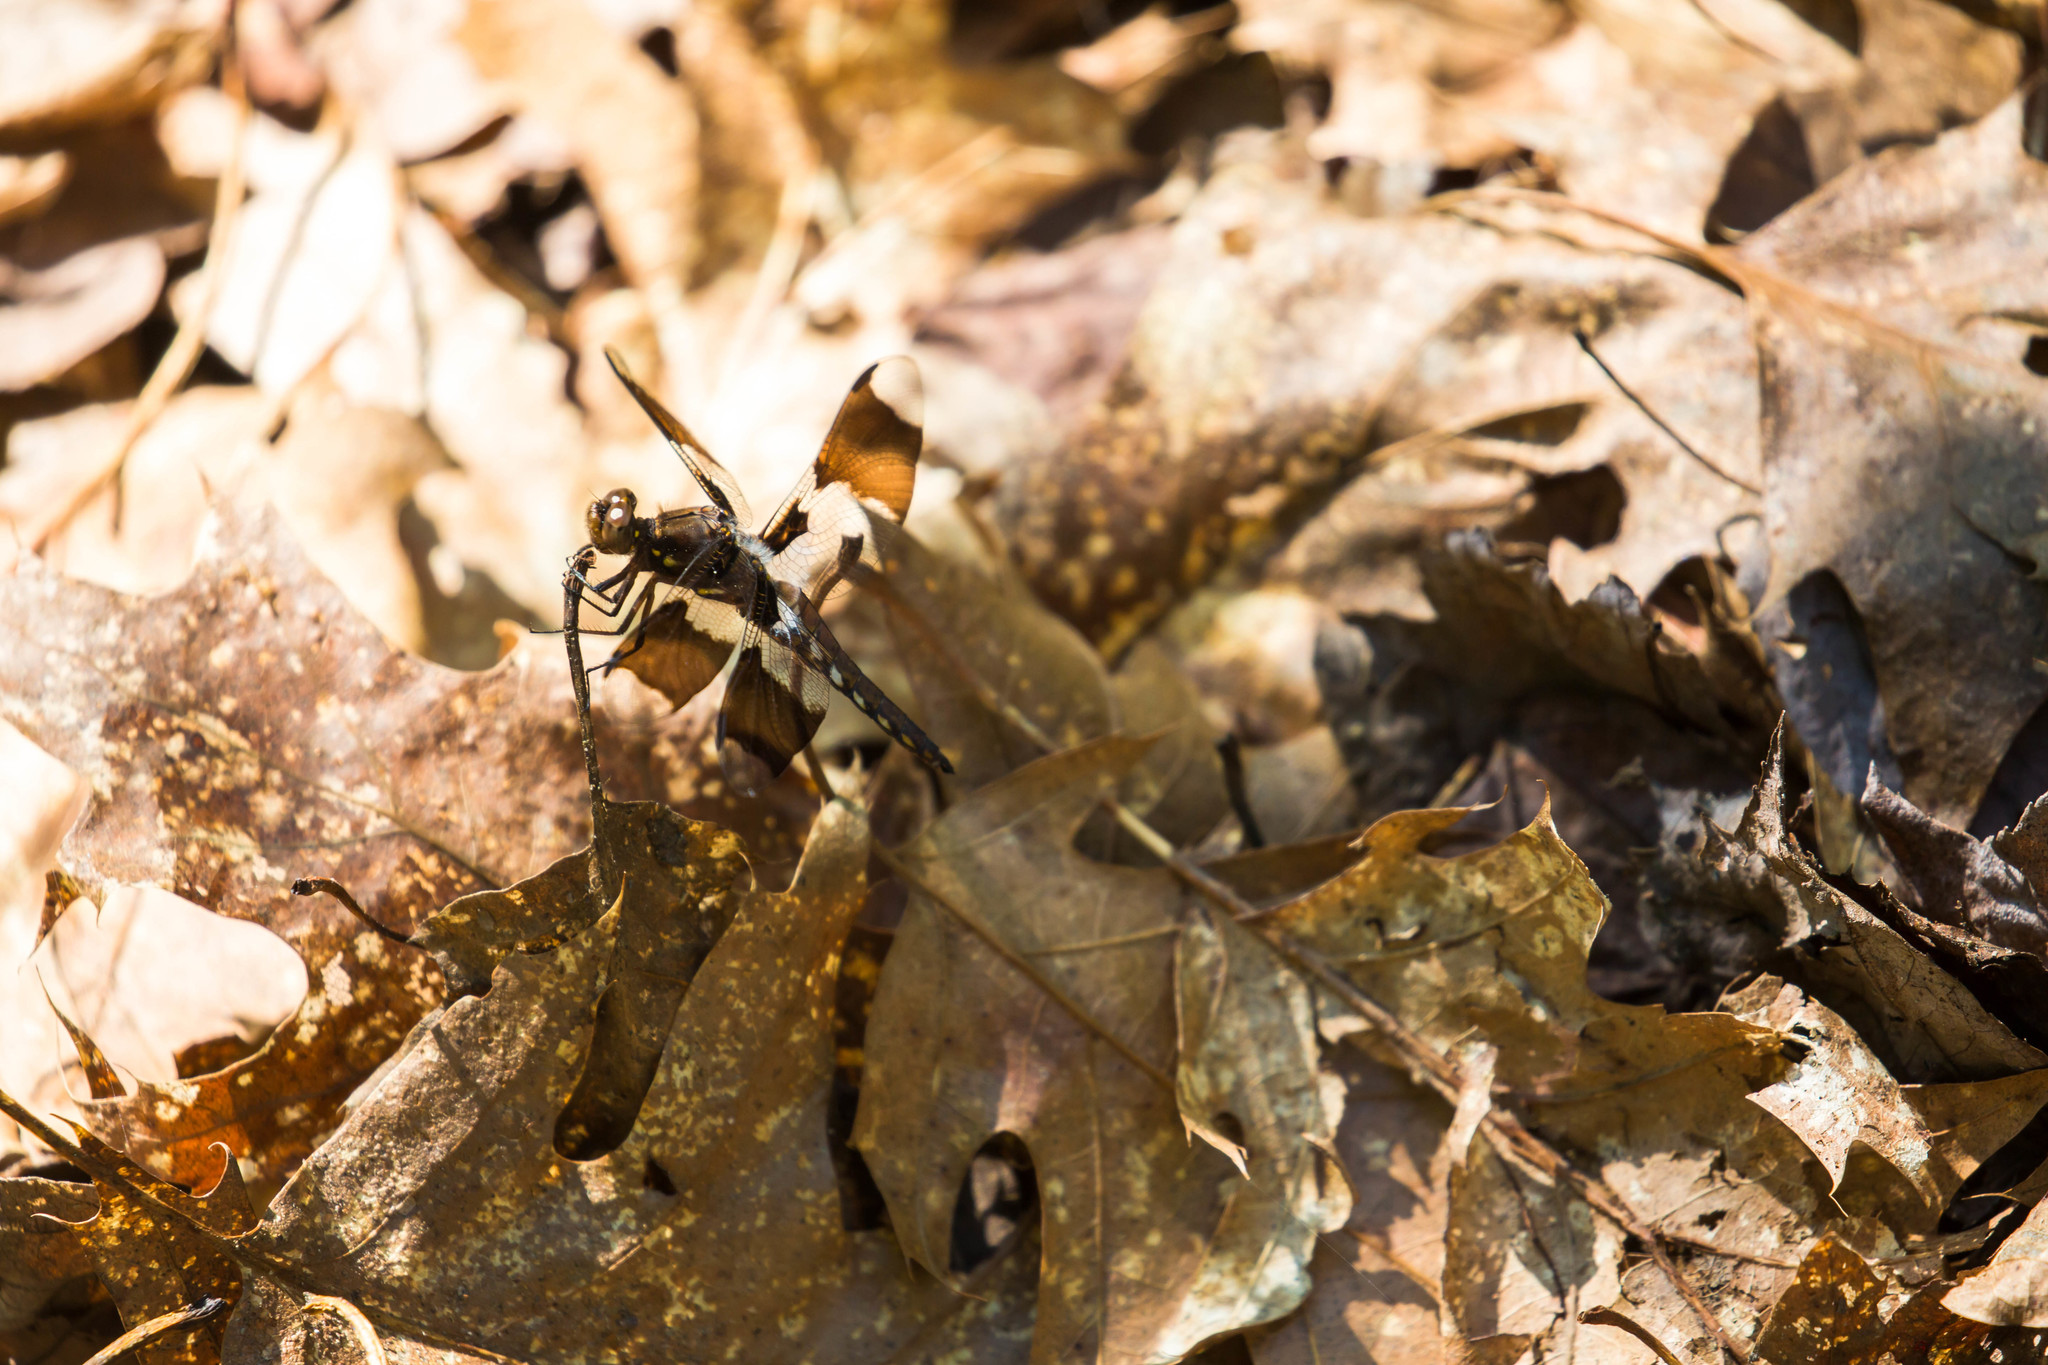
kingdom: Animalia
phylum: Arthropoda
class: Insecta
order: Odonata
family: Libellulidae
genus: Plathemis
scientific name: Plathemis lydia
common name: Common whitetail
